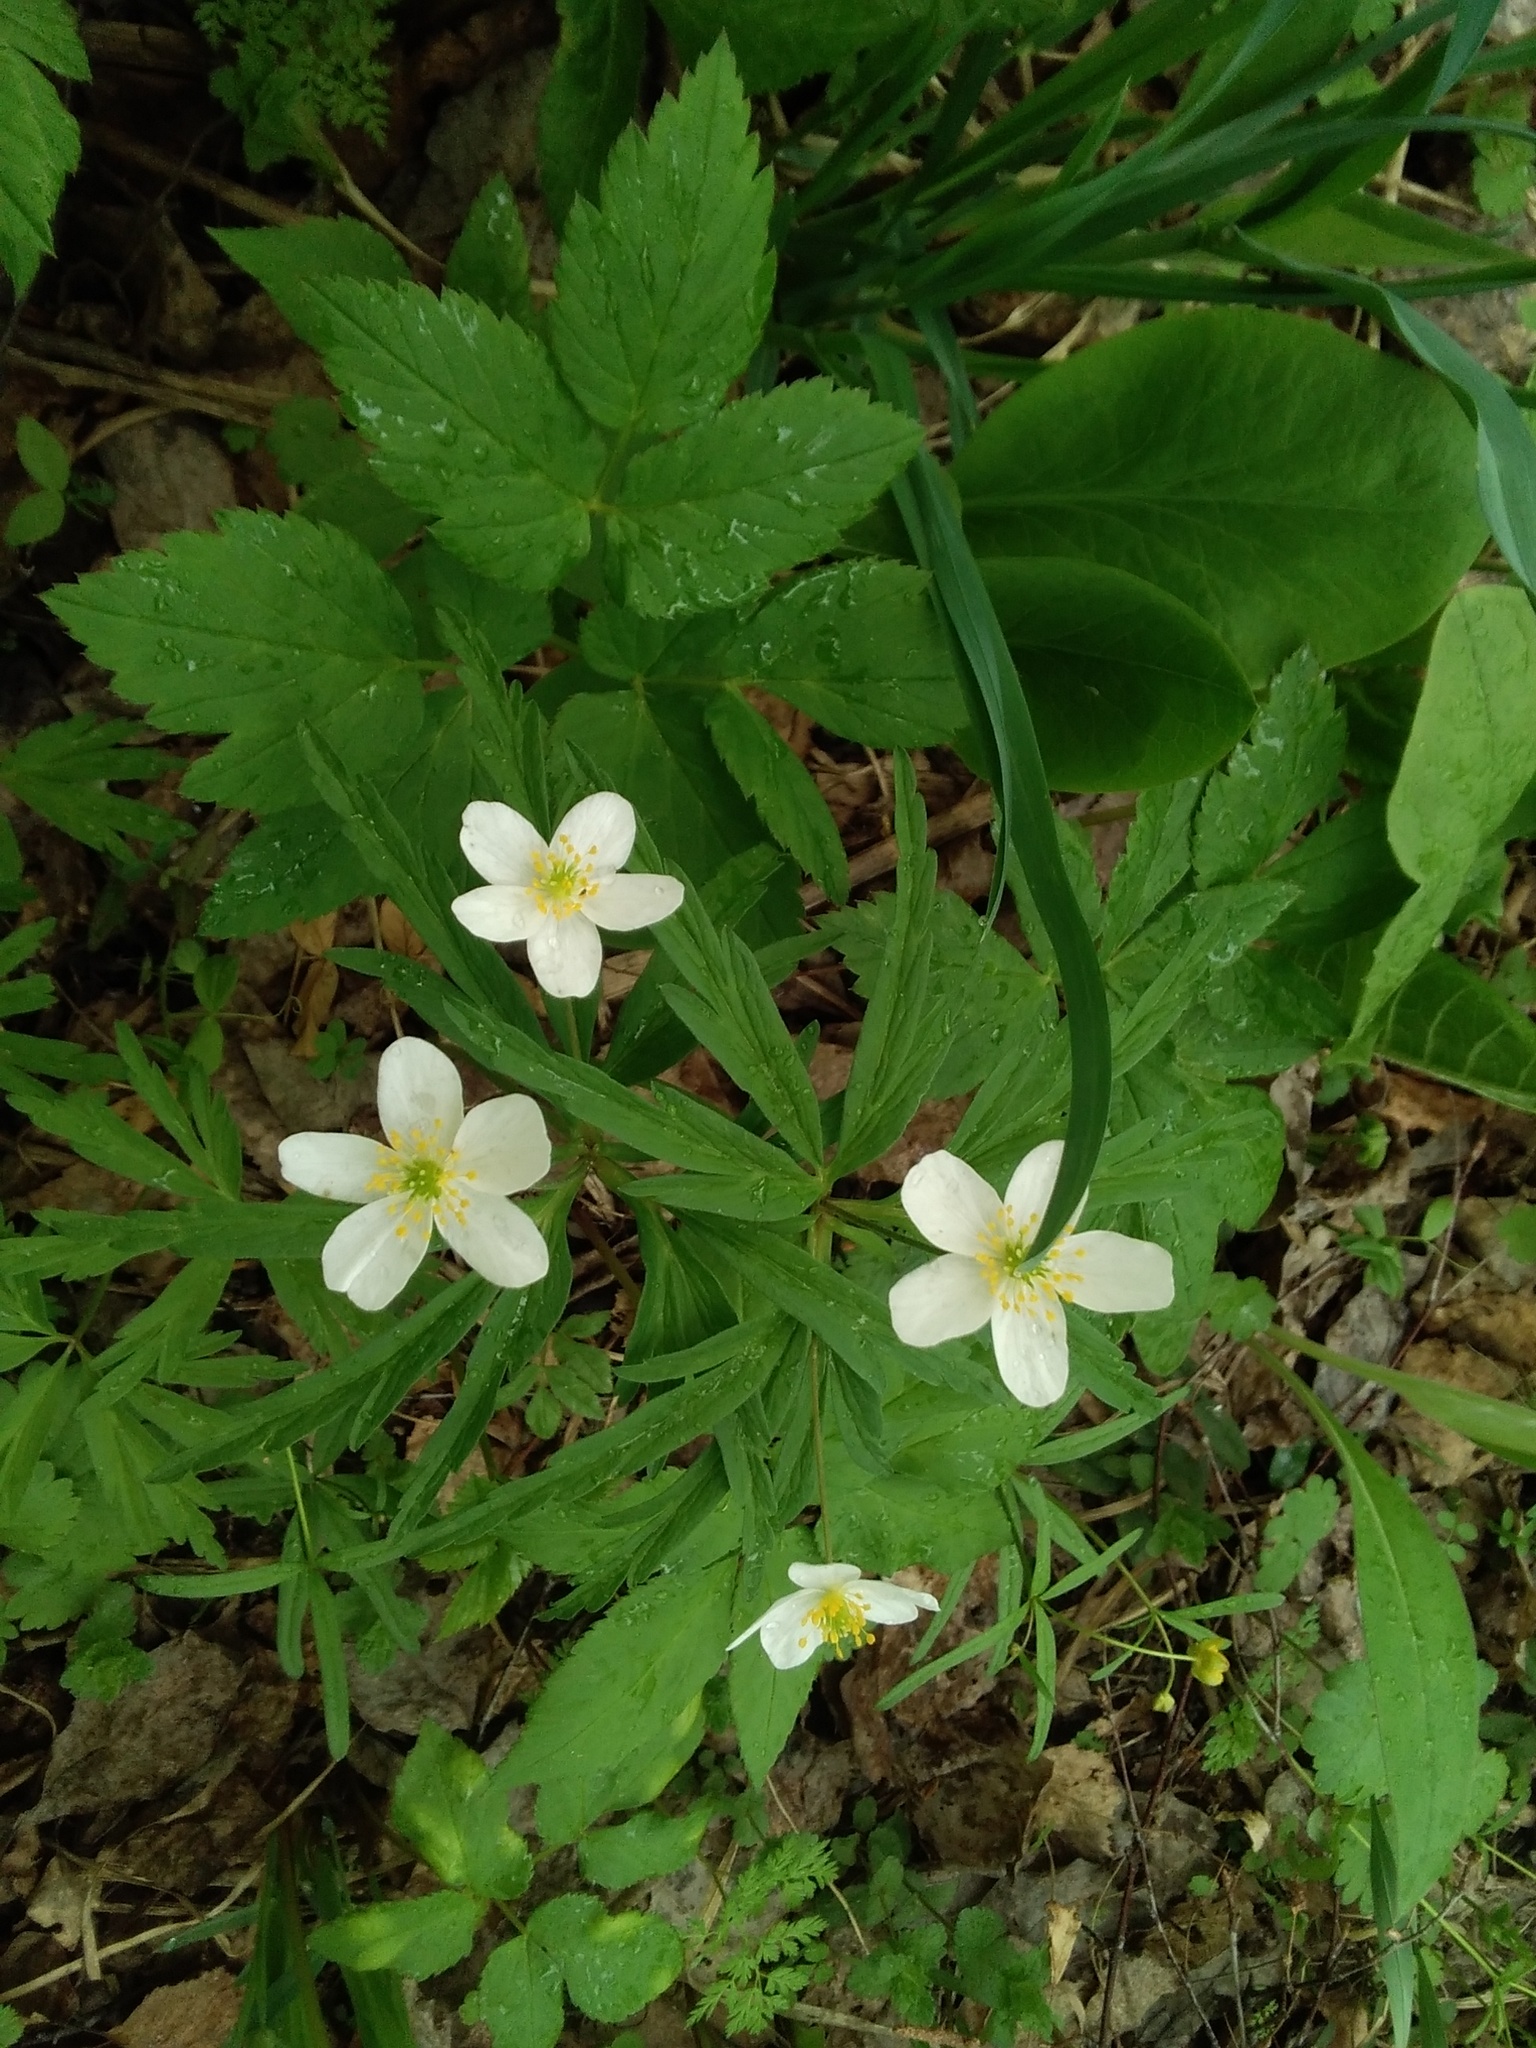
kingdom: Plantae
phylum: Tracheophyta
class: Magnoliopsida
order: Ranunculales
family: Ranunculaceae
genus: Anemone
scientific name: Anemone caerulea
